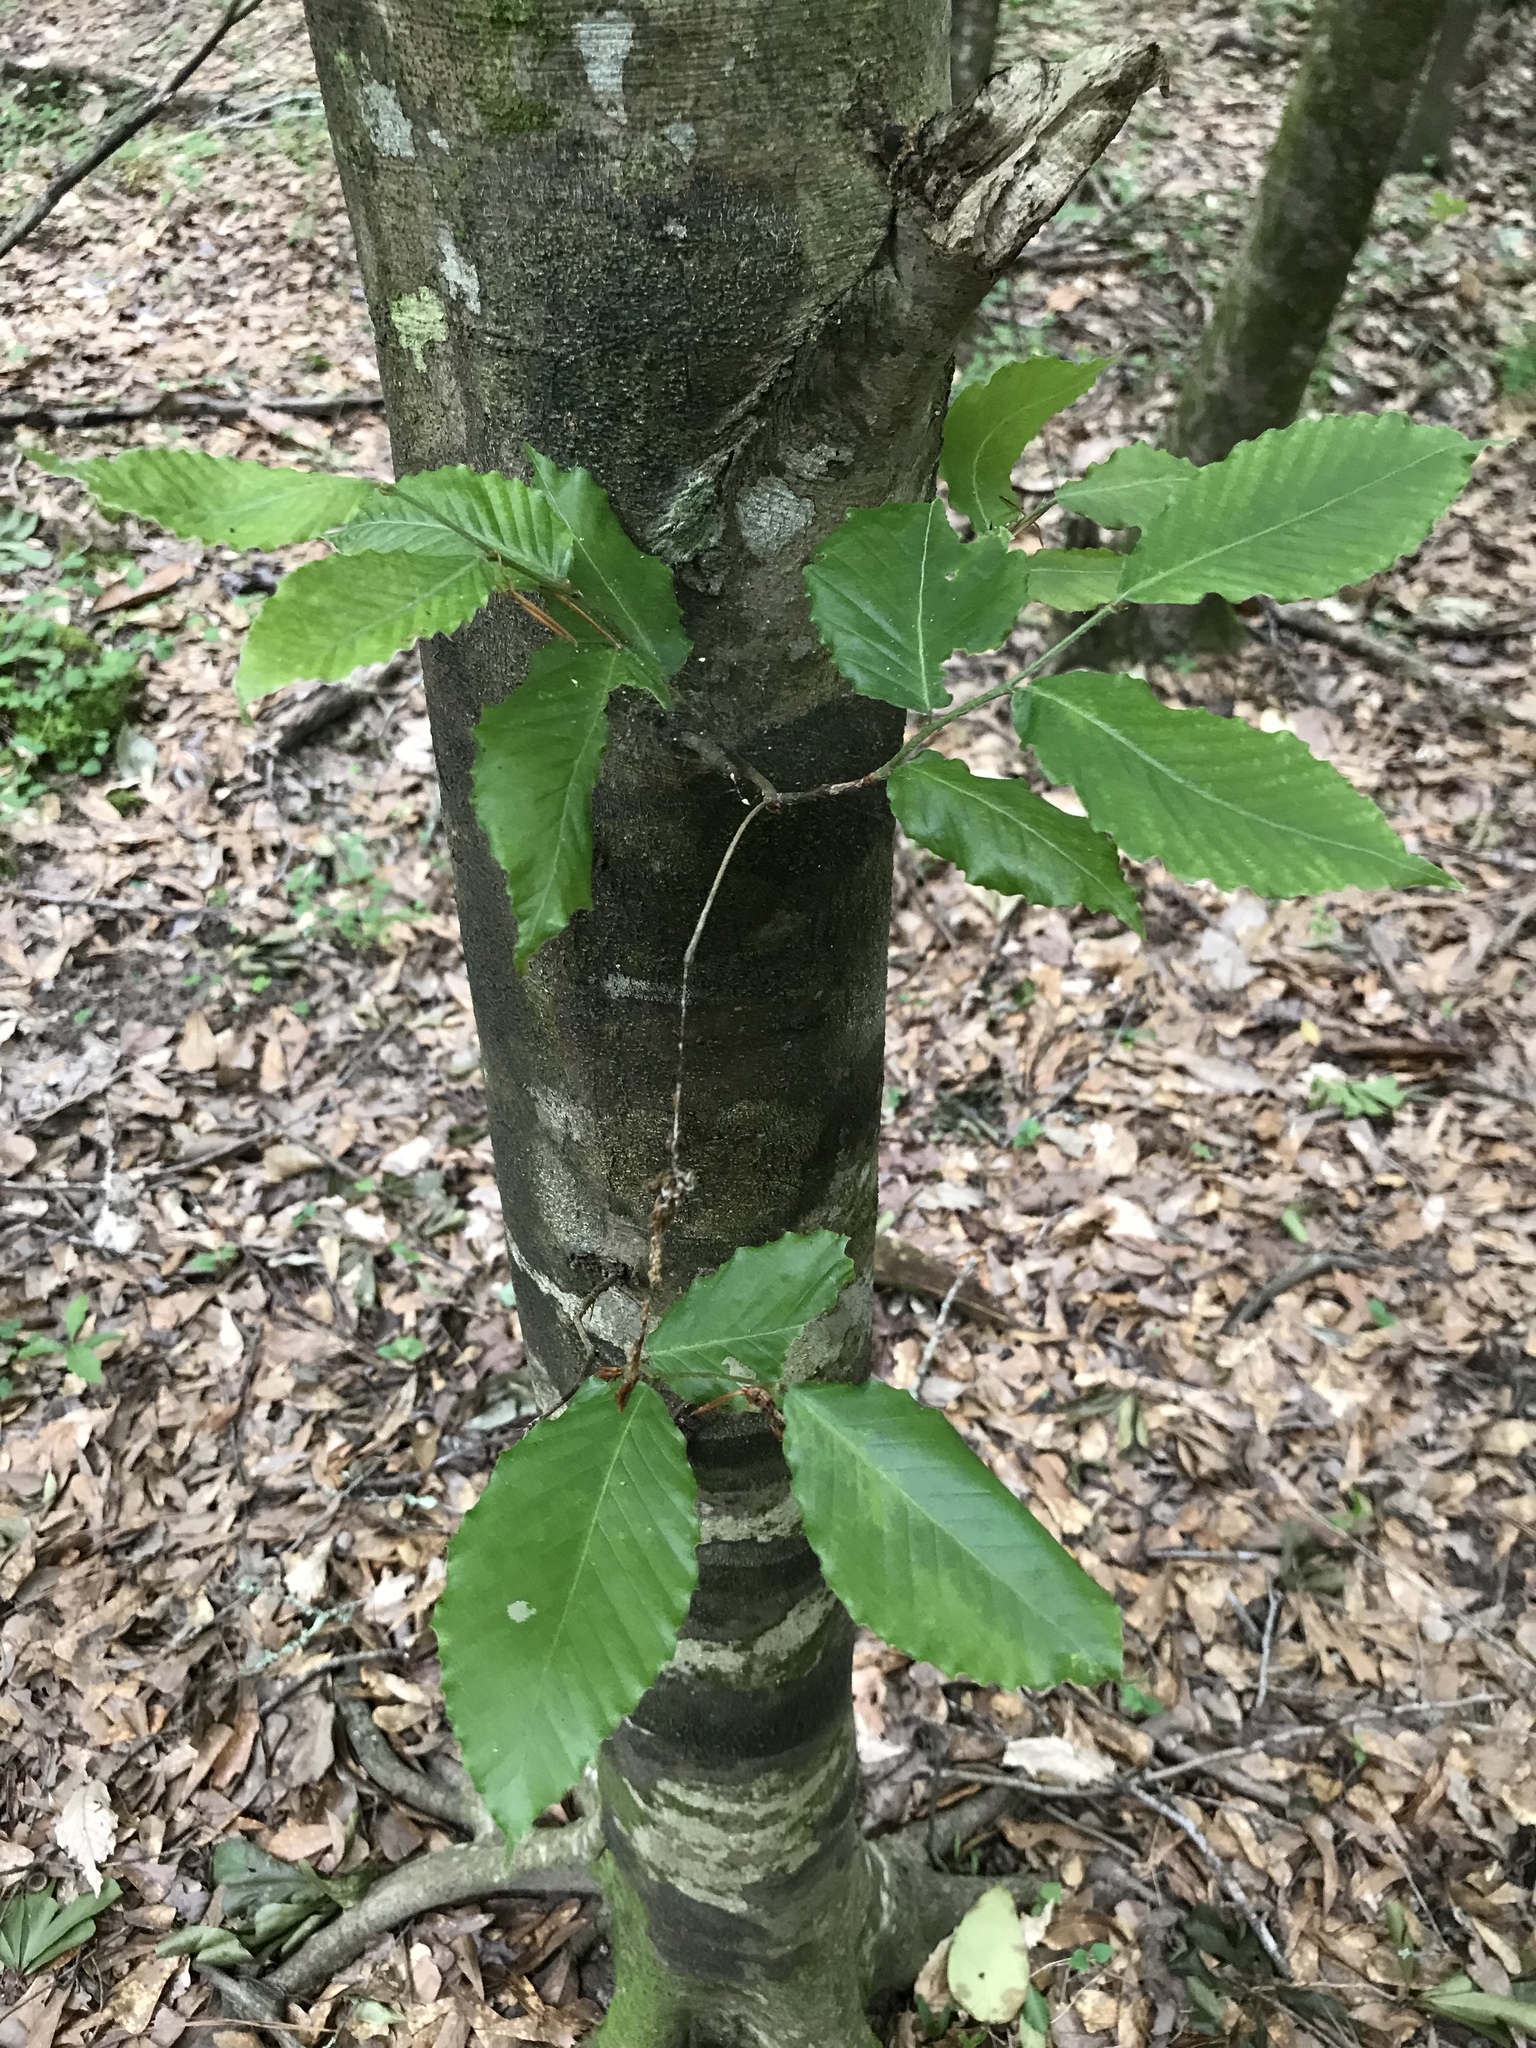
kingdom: Plantae
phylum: Tracheophyta
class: Magnoliopsida
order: Fagales
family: Fagaceae
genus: Fagus
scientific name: Fagus grandifolia
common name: American beech
